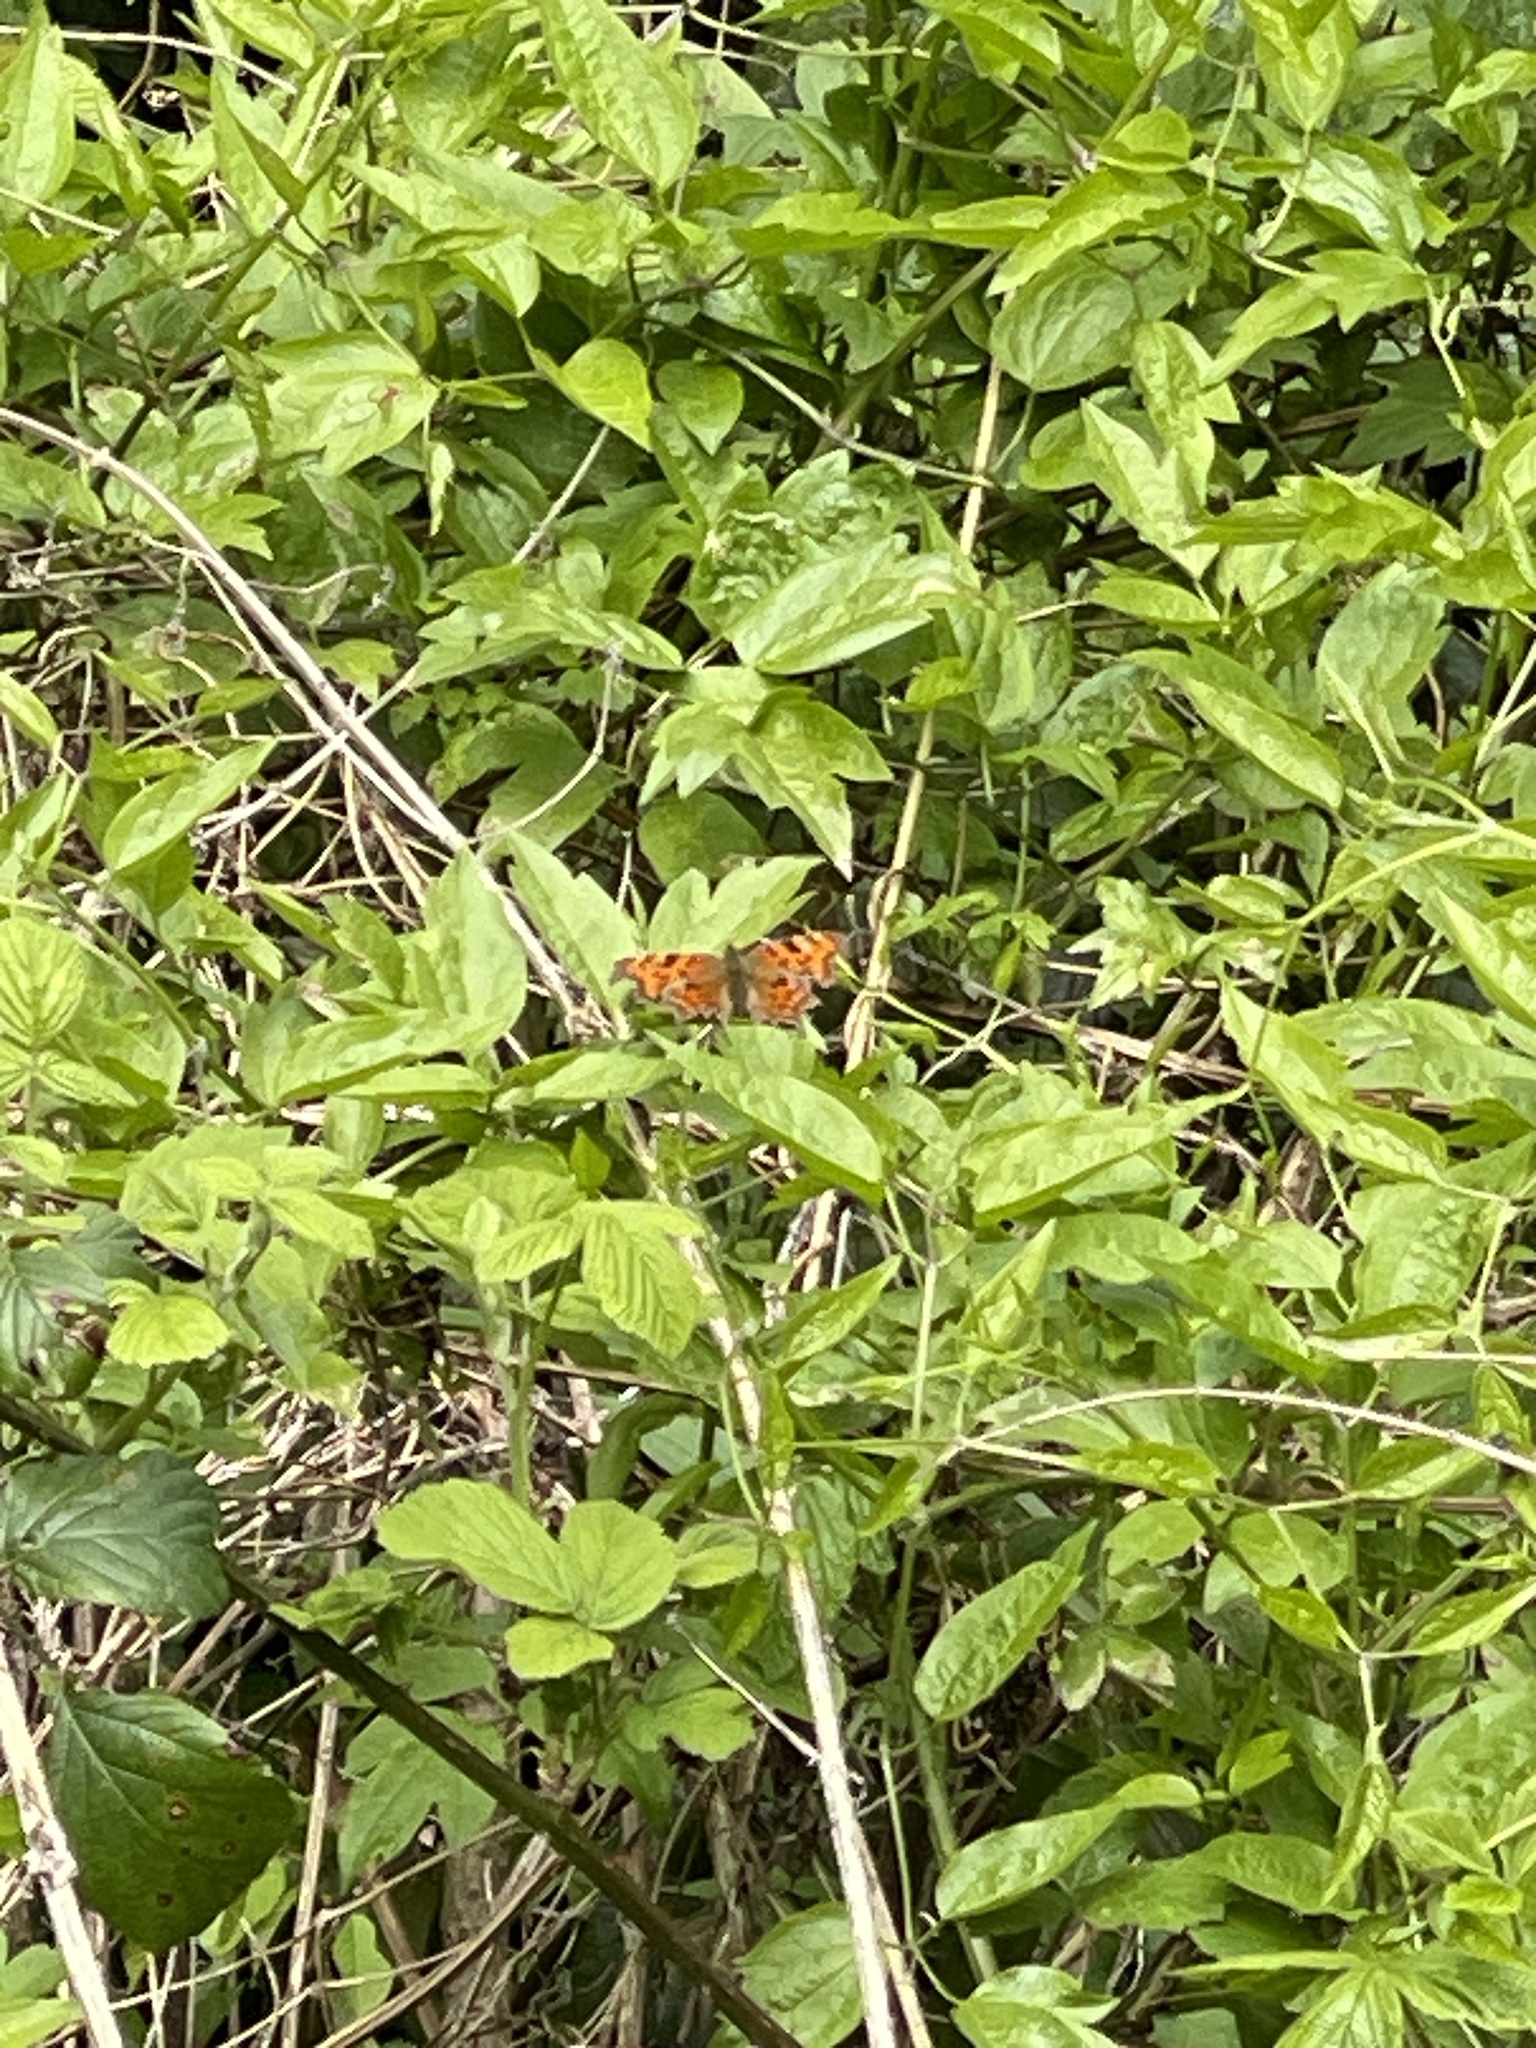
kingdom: Animalia
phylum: Arthropoda
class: Insecta
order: Lepidoptera
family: Nymphalidae
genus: Polygonia
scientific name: Polygonia c-album
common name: Comma
